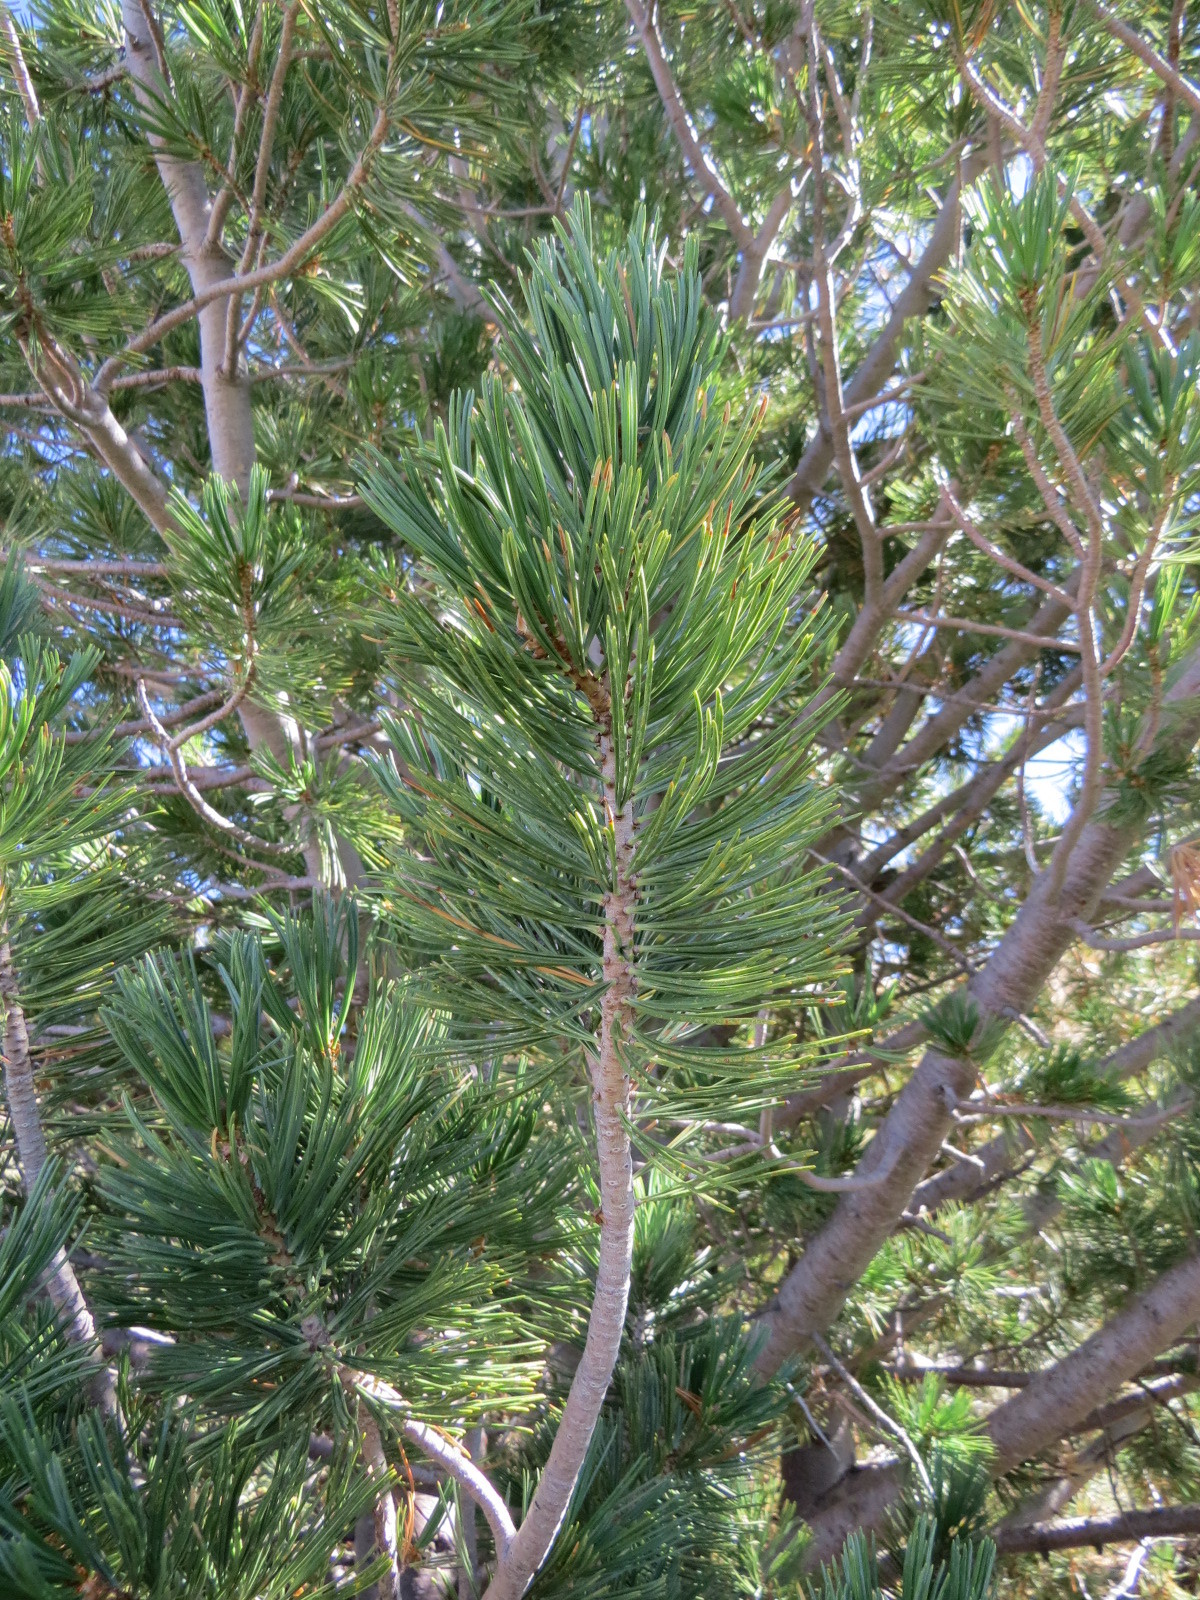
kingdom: Plantae
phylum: Tracheophyta
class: Pinopsida
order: Pinales
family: Pinaceae
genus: Pinus
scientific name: Pinus albicaulis
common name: Whitebark pine
